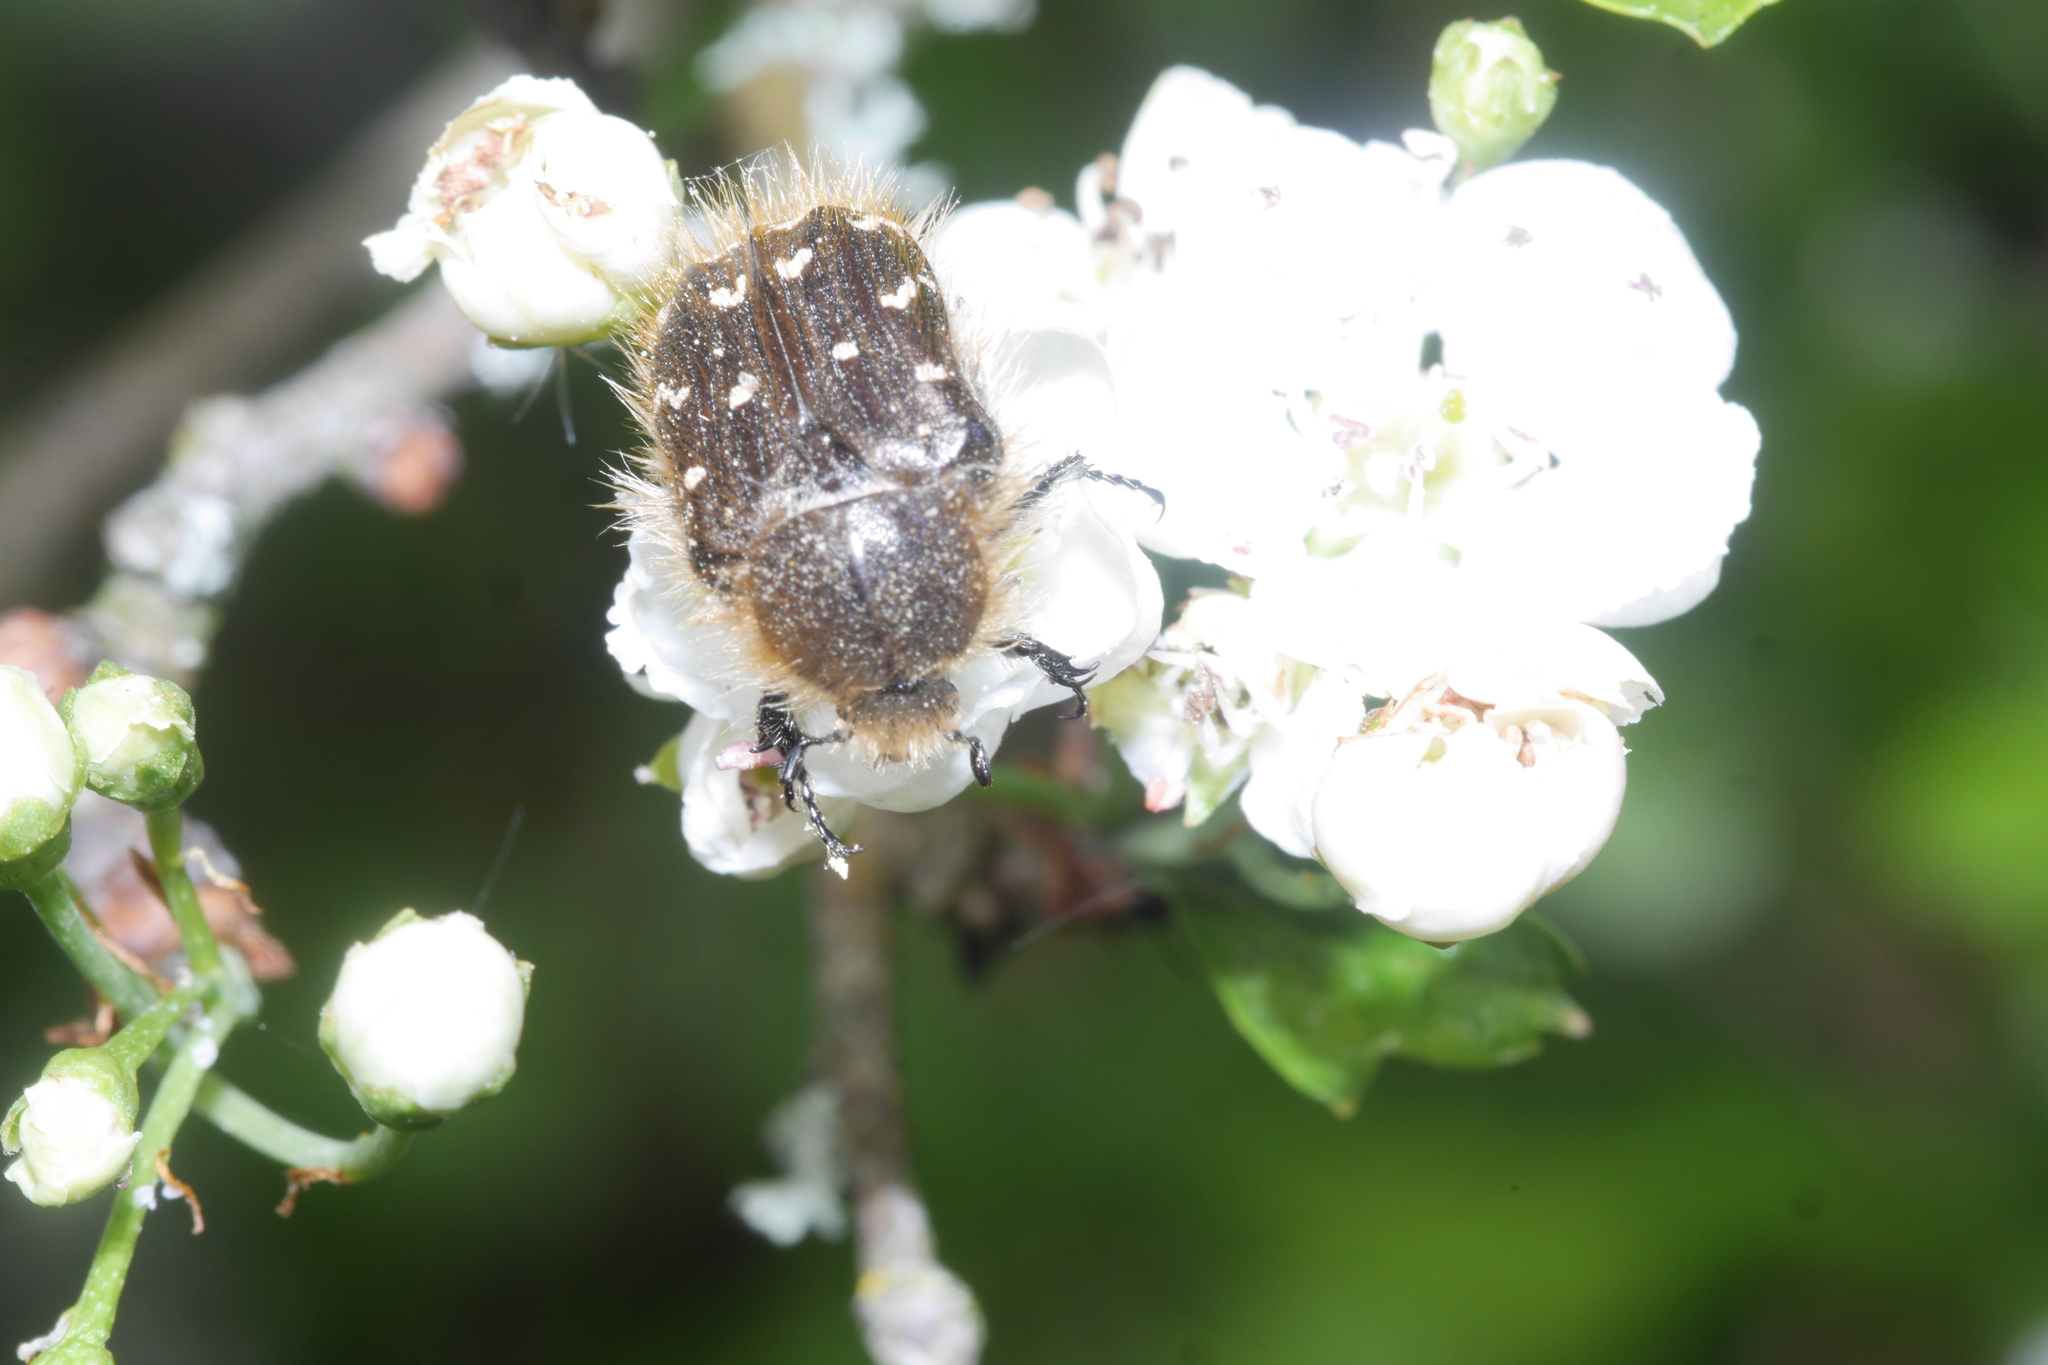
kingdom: Animalia
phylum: Arthropoda
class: Insecta
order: Coleoptera
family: Scarabaeidae
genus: Tropinota
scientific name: Tropinota hirta
